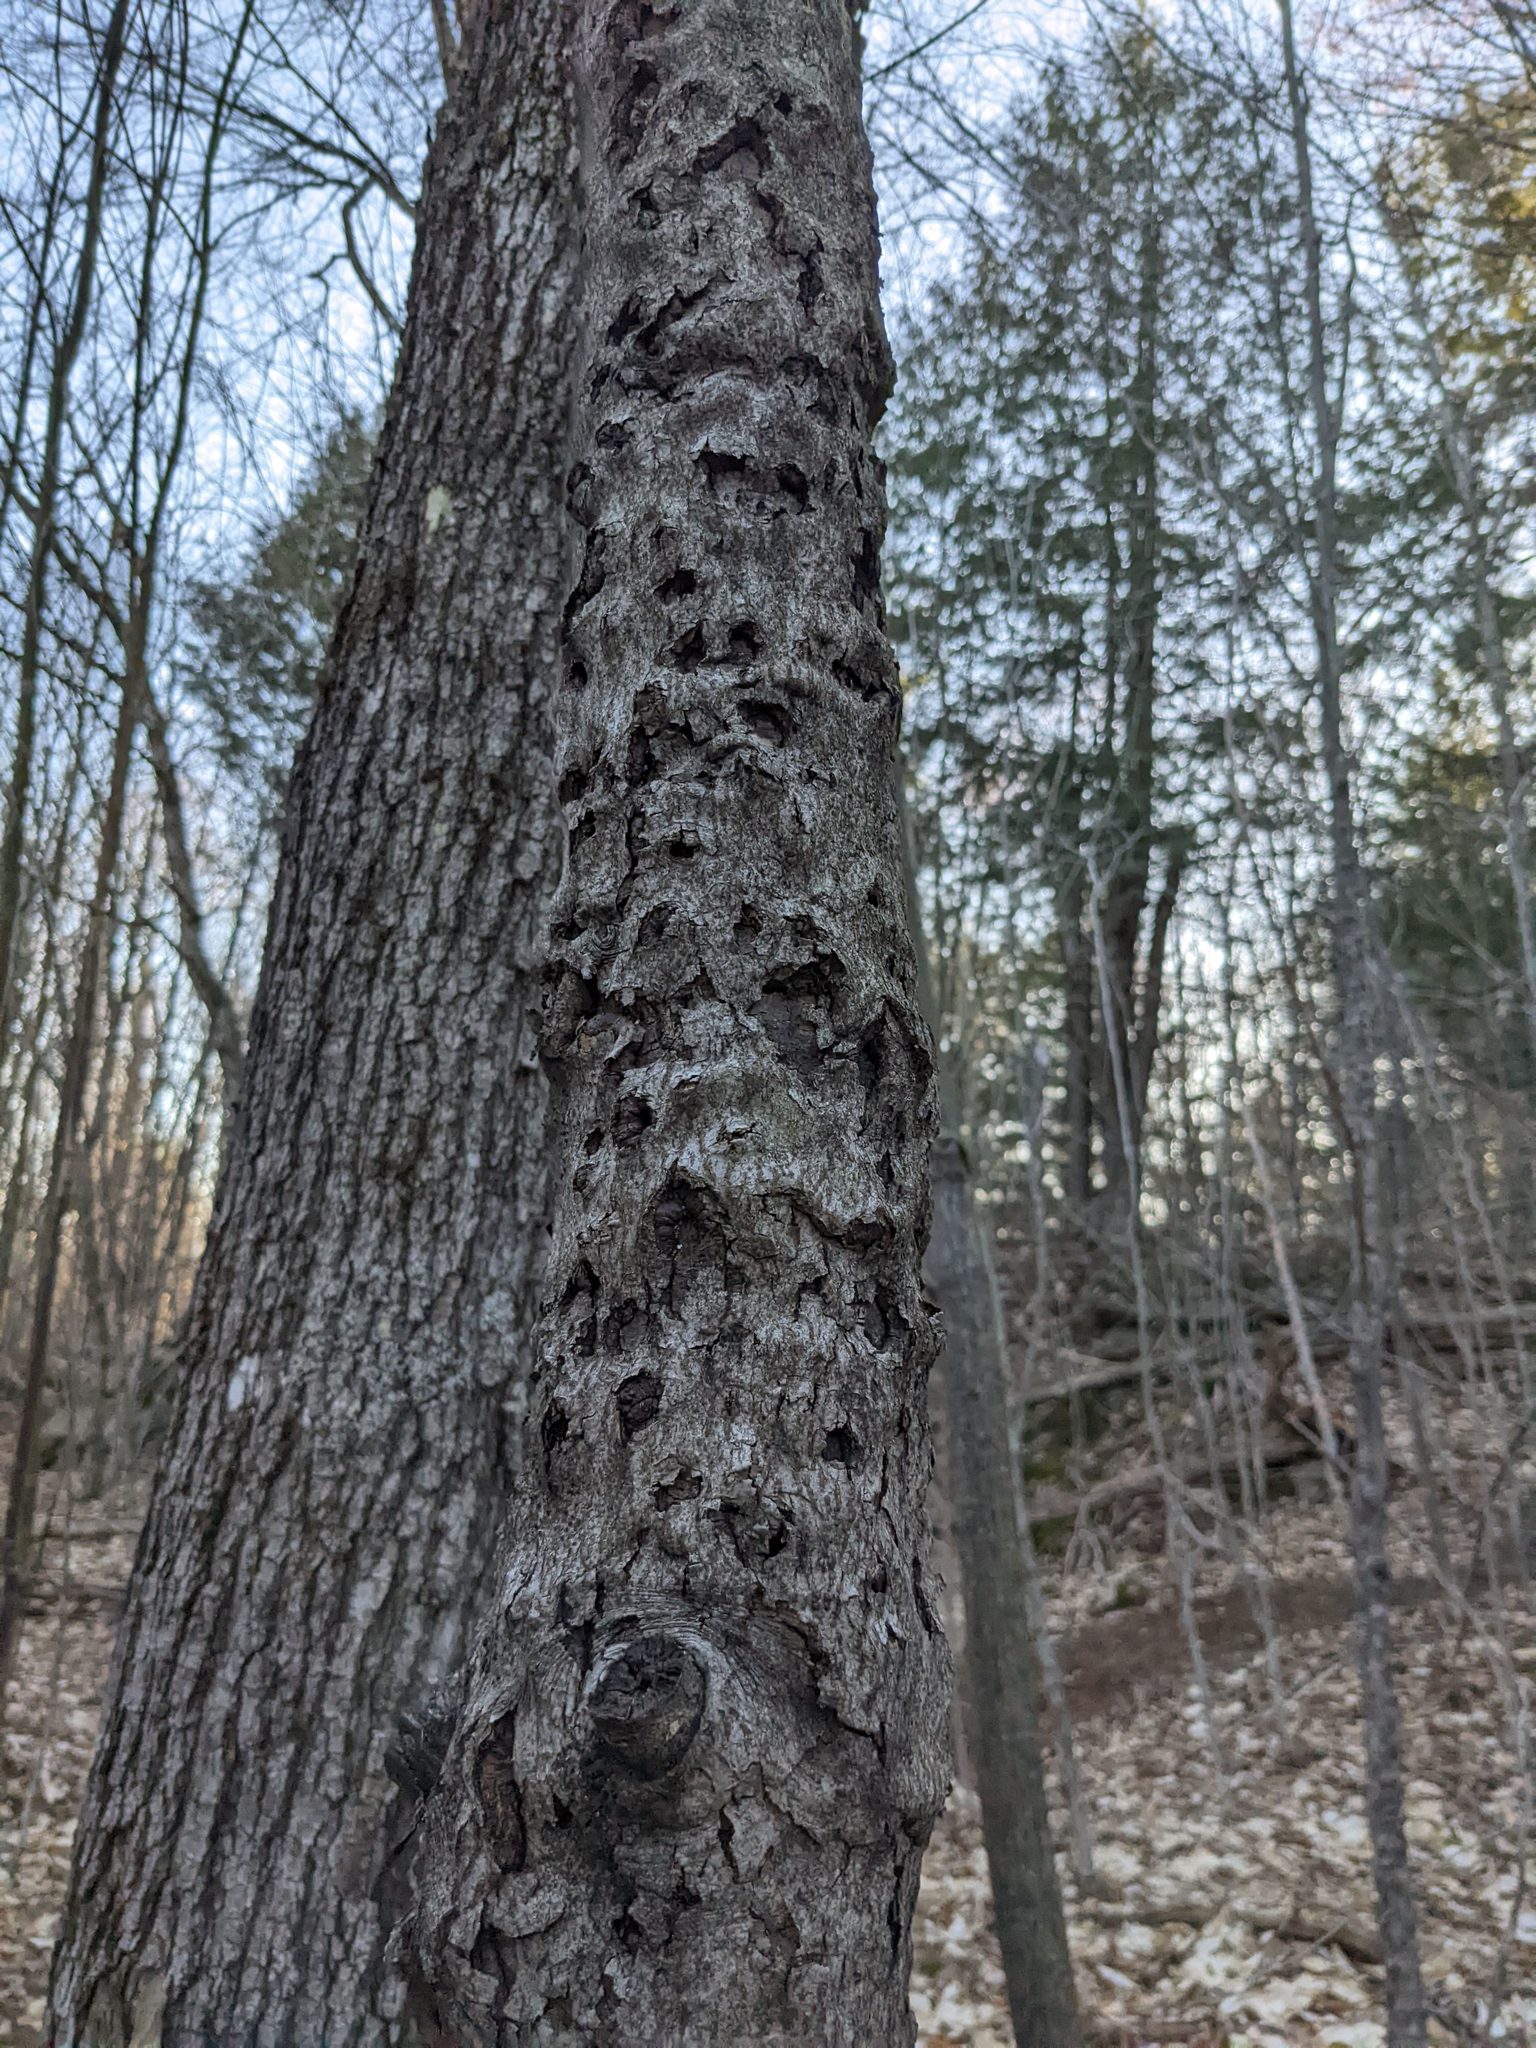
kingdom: Plantae
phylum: Tracheophyta
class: Magnoliopsida
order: Fagales
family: Fagaceae
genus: Fagus
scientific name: Fagus grandifolia
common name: American beech
